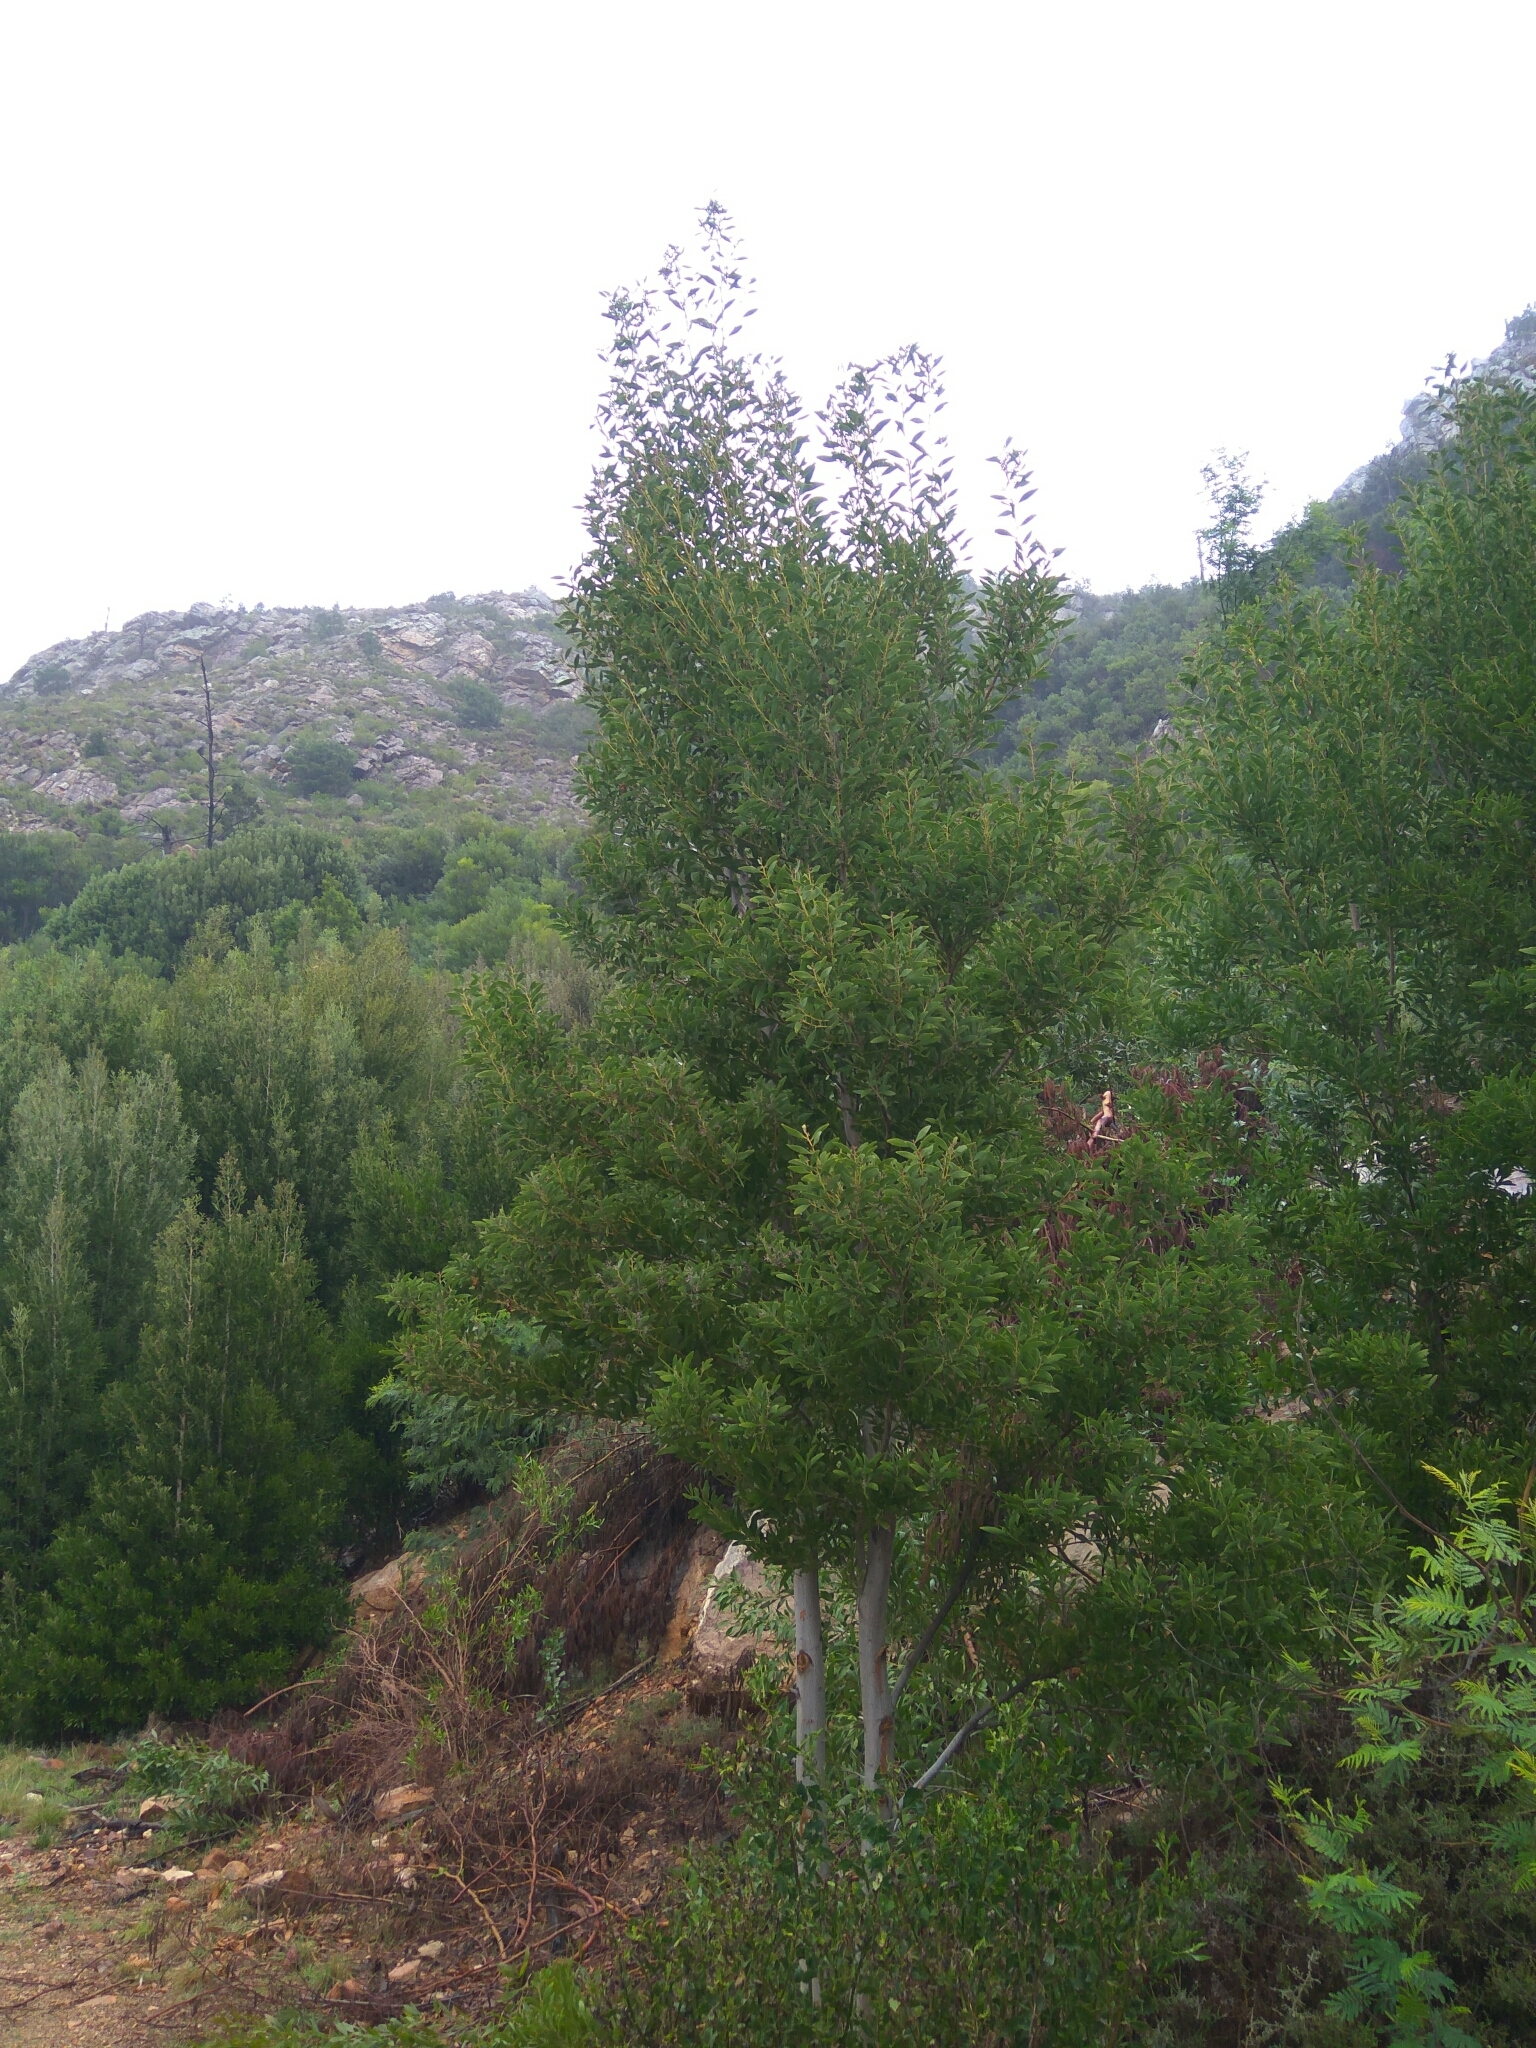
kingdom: Plantae
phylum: Tracheophyta
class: Magnoliopsida
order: Fabales
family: Fabaceae
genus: Acacia
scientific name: Acacia melanoxylon
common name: Blackwood
